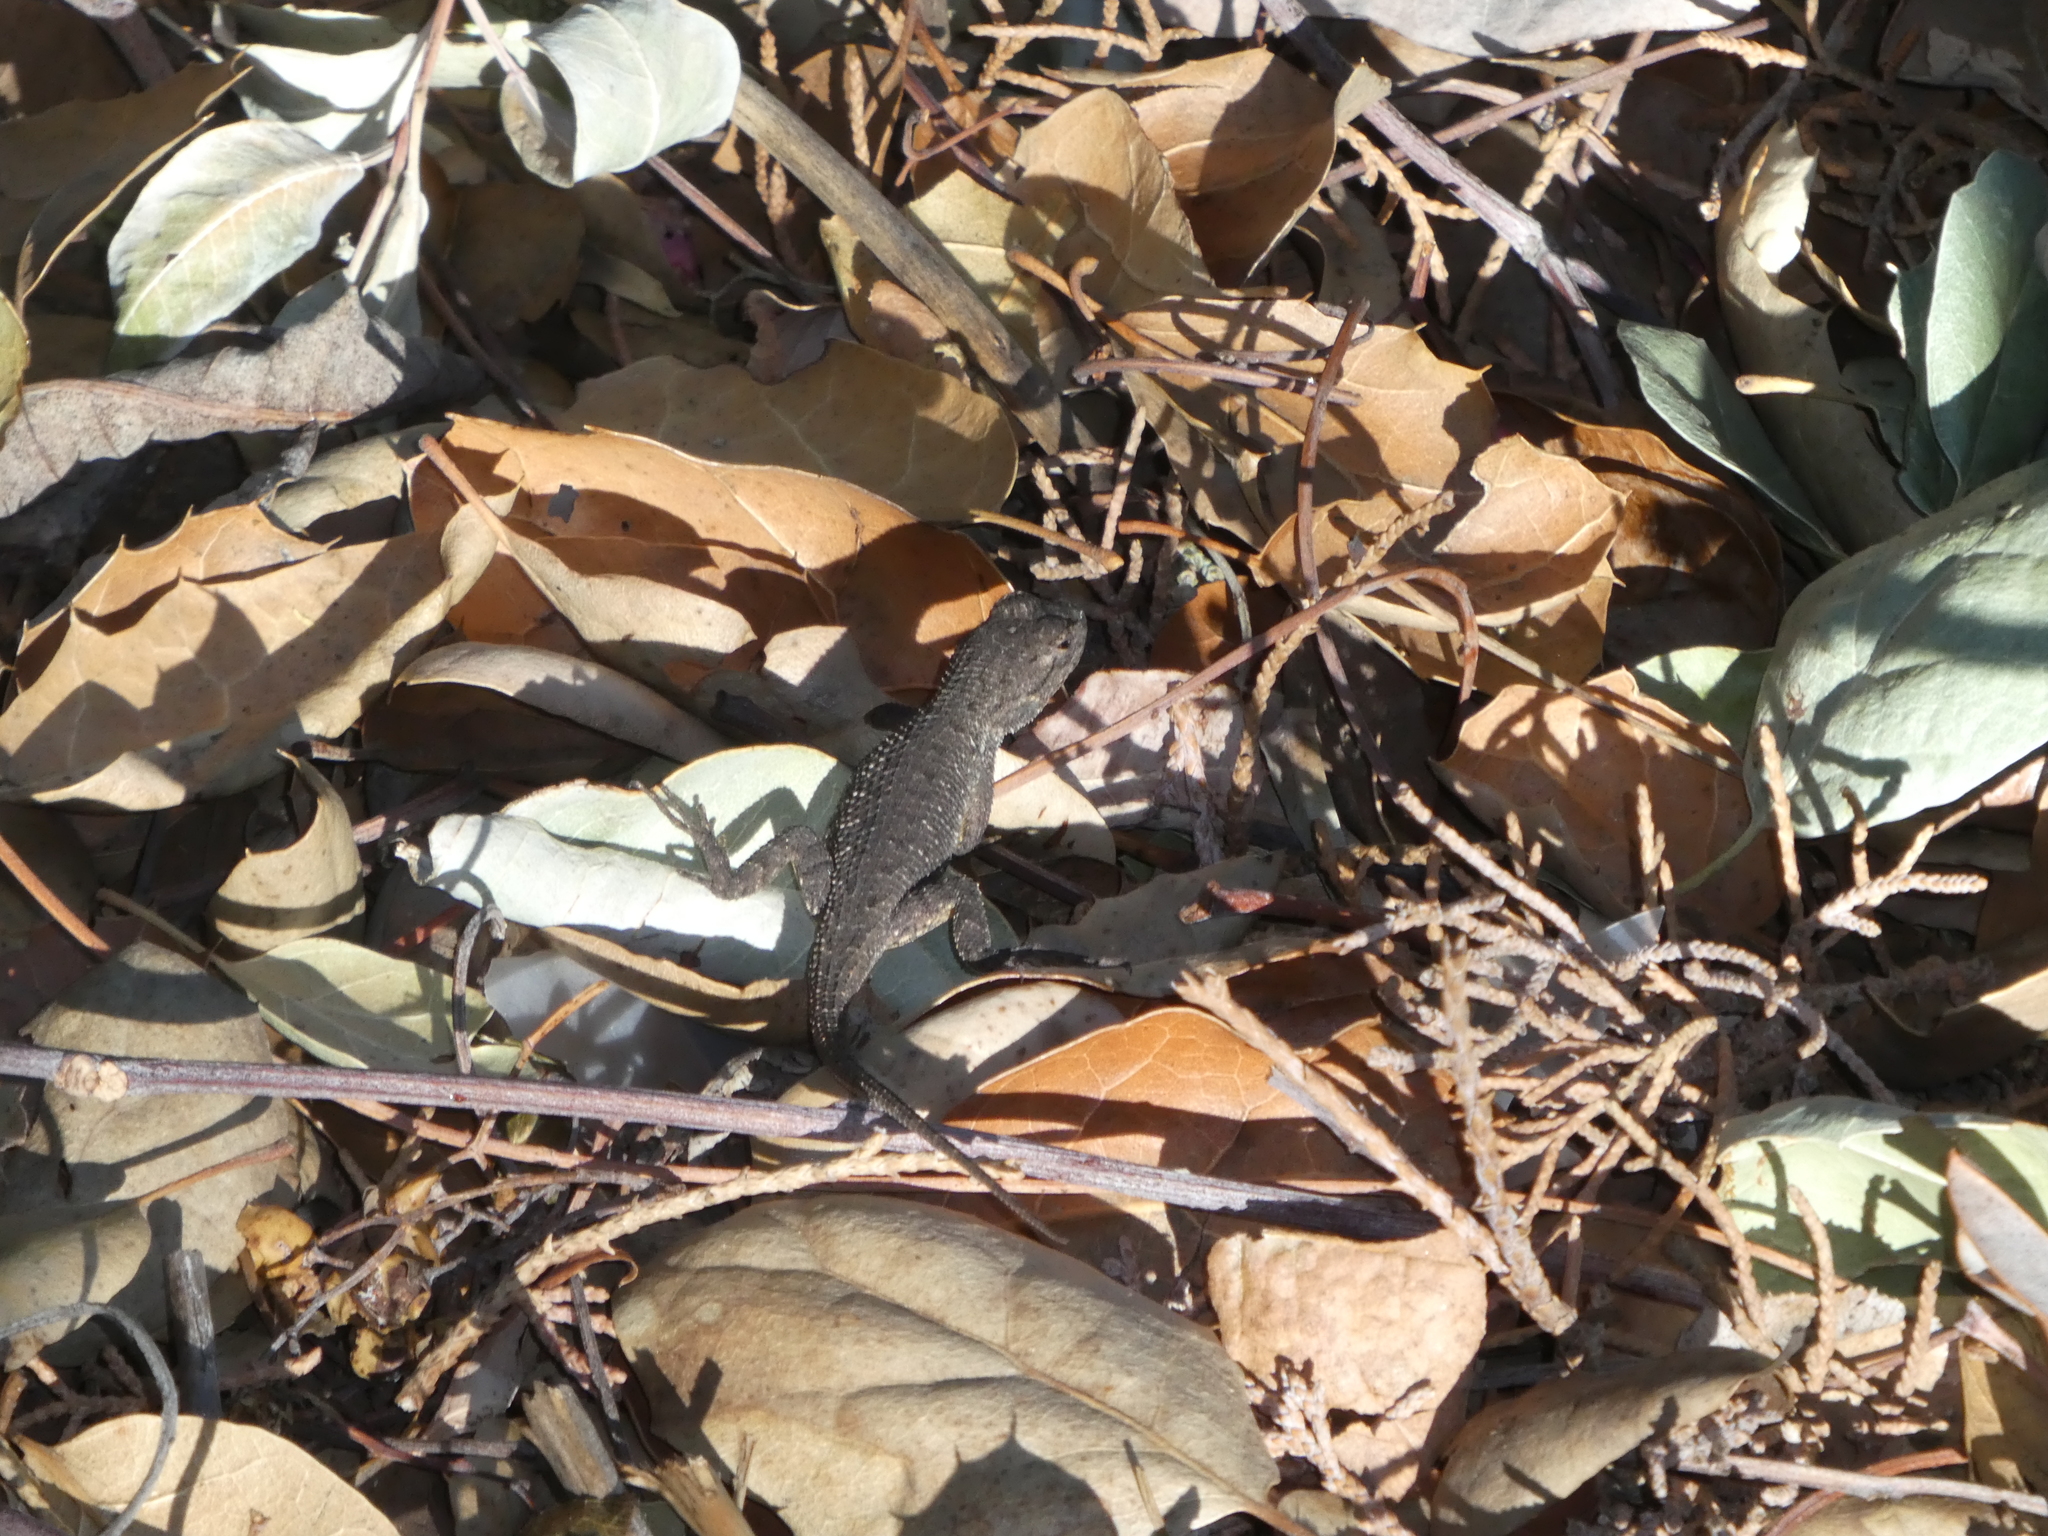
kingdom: Animalia
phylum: Chordata
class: Squamata
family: Phrynosomatidae
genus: Sceloporus
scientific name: Sceloporus occidentalis
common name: Western fence lizard
